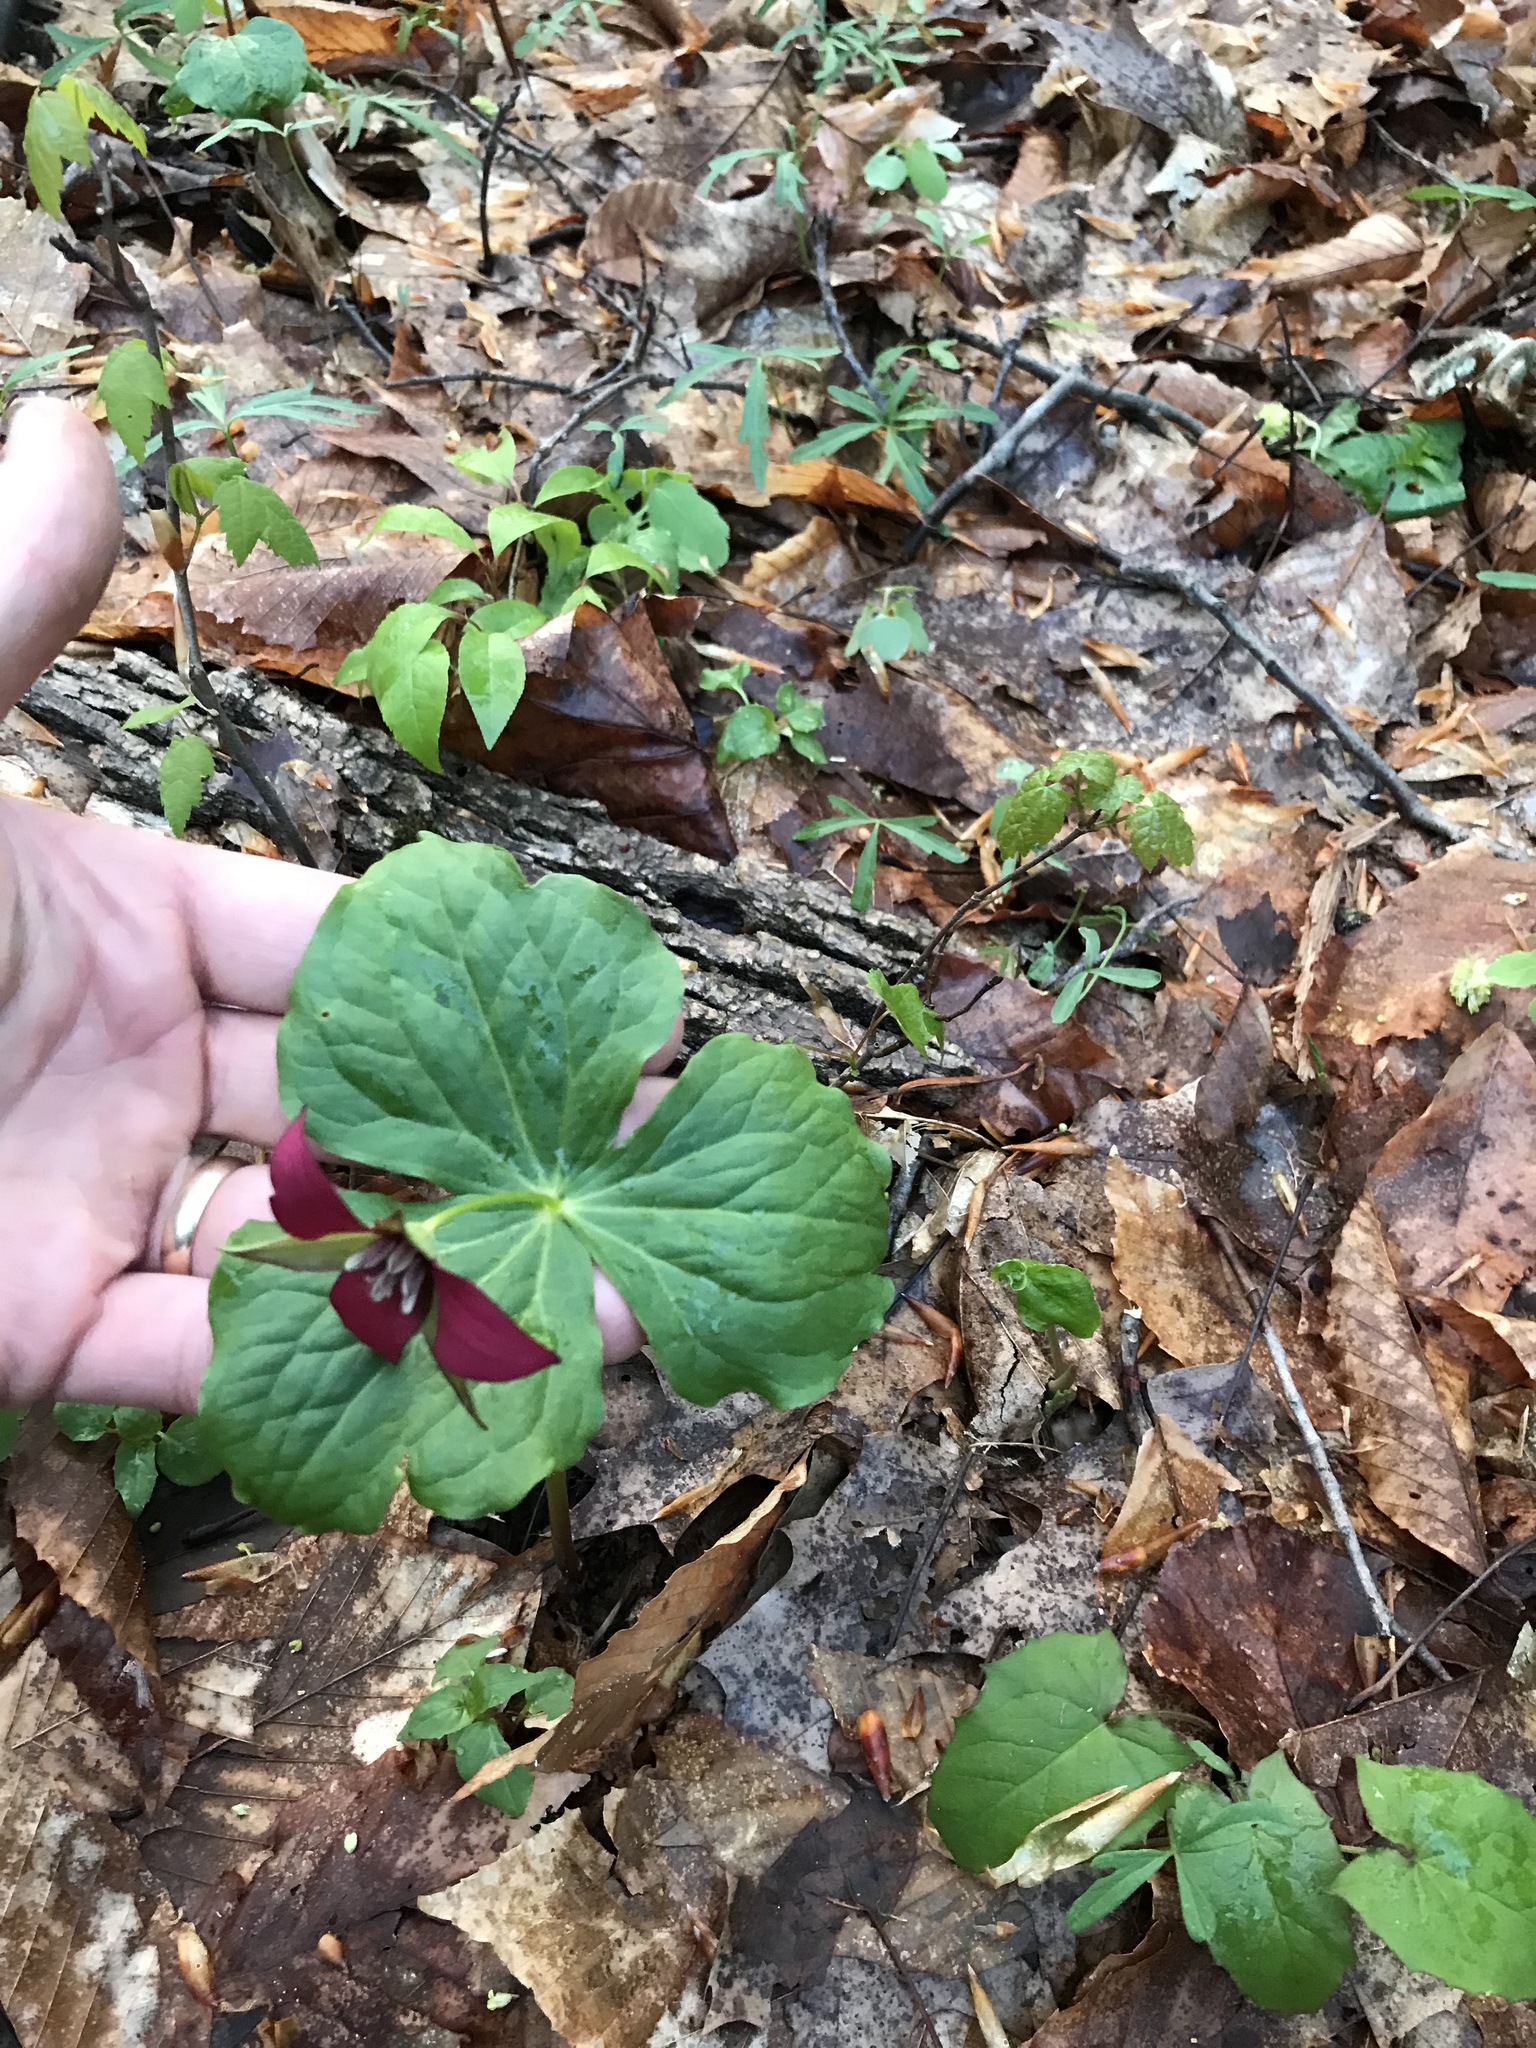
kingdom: Plantae
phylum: Tracheophyta
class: Liliopsida
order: Liliales
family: Melanthiaceae
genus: Trillium
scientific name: Trillium erectum
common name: Purple trillium
